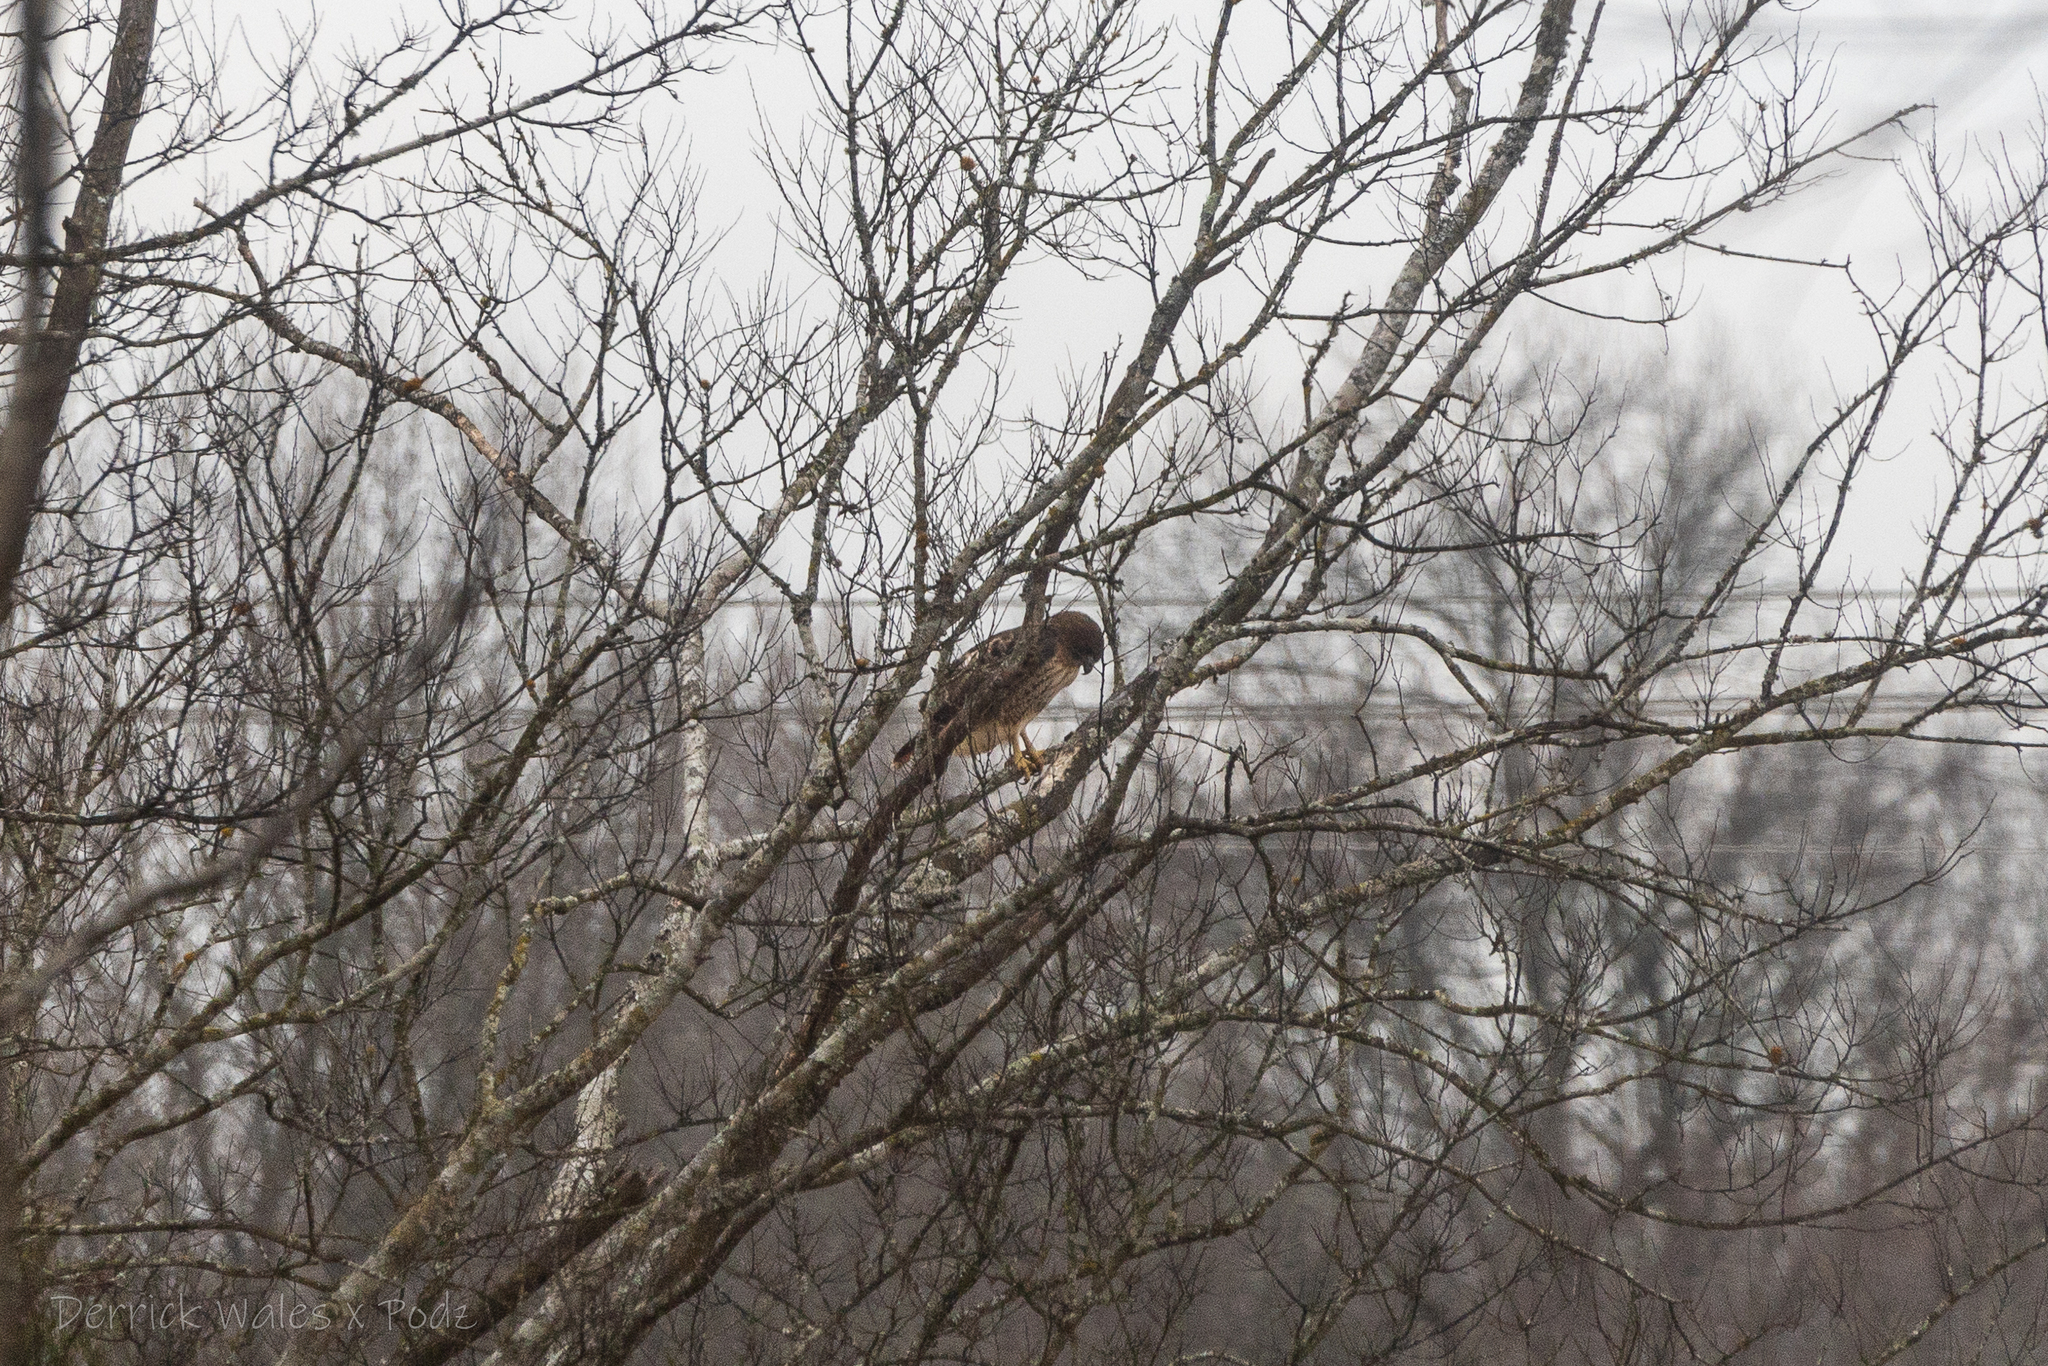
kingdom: Animalia
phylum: Chordata
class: Aves
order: Accipitriformes
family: Accipitridae
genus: Buteo
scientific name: Buteo jamaicensis
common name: Red-tailed hawk
